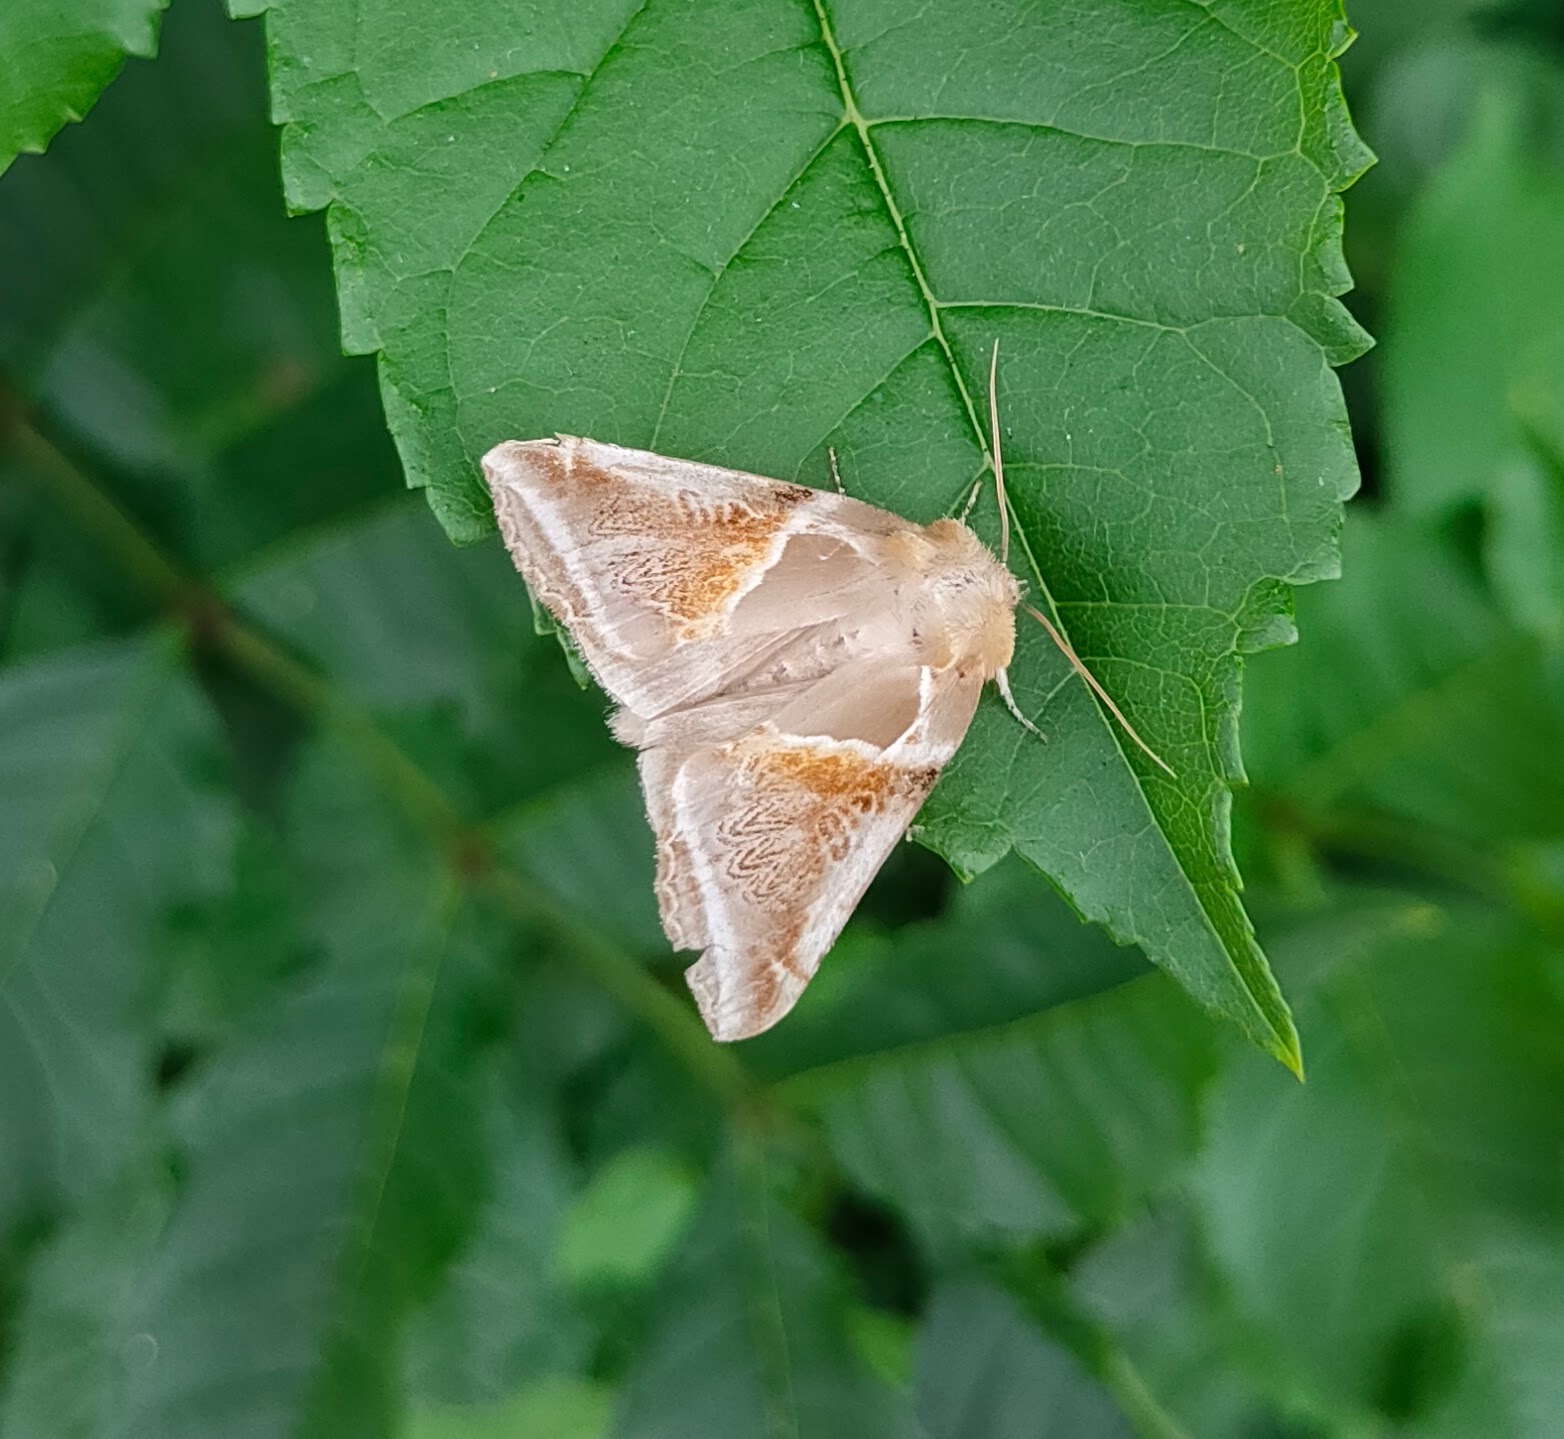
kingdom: Animalia
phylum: Arthropoda
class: Insecta
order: Lepidoptera
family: Drepanidae
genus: Habrosyne
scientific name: Habrosyne pyritoides
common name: Buff arches
